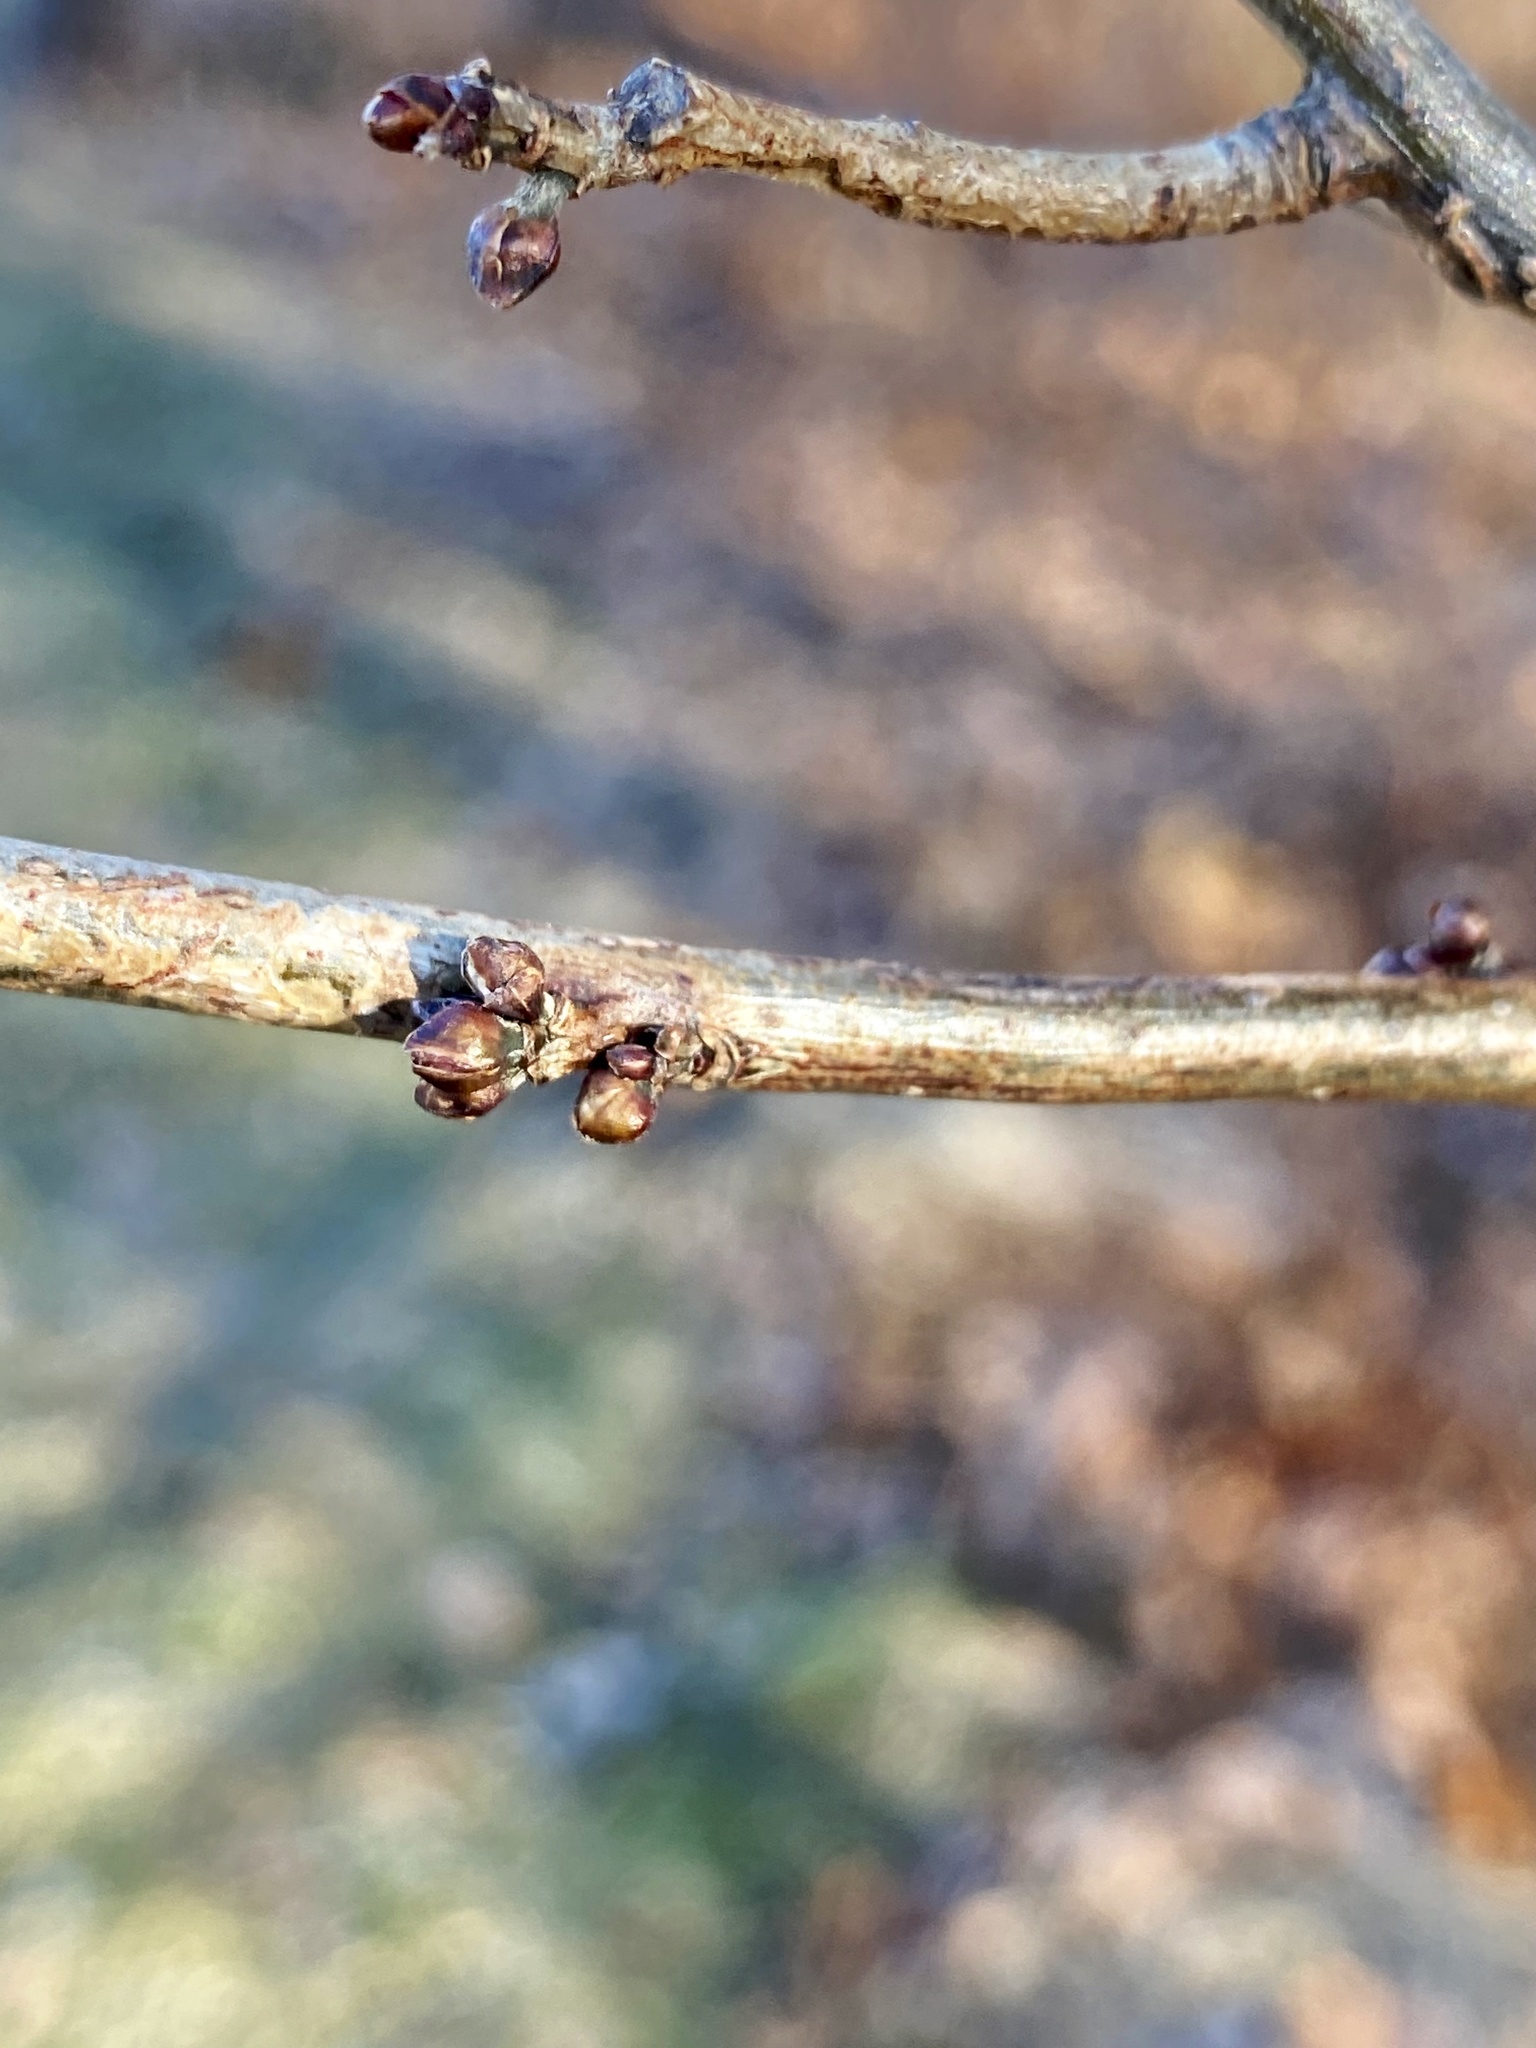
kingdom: Plantae
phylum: Tracheophyta
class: Magnoliopsida
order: Laurales
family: Lauraceae
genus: Lindera
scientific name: Lindera benzoin
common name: Spicebush
